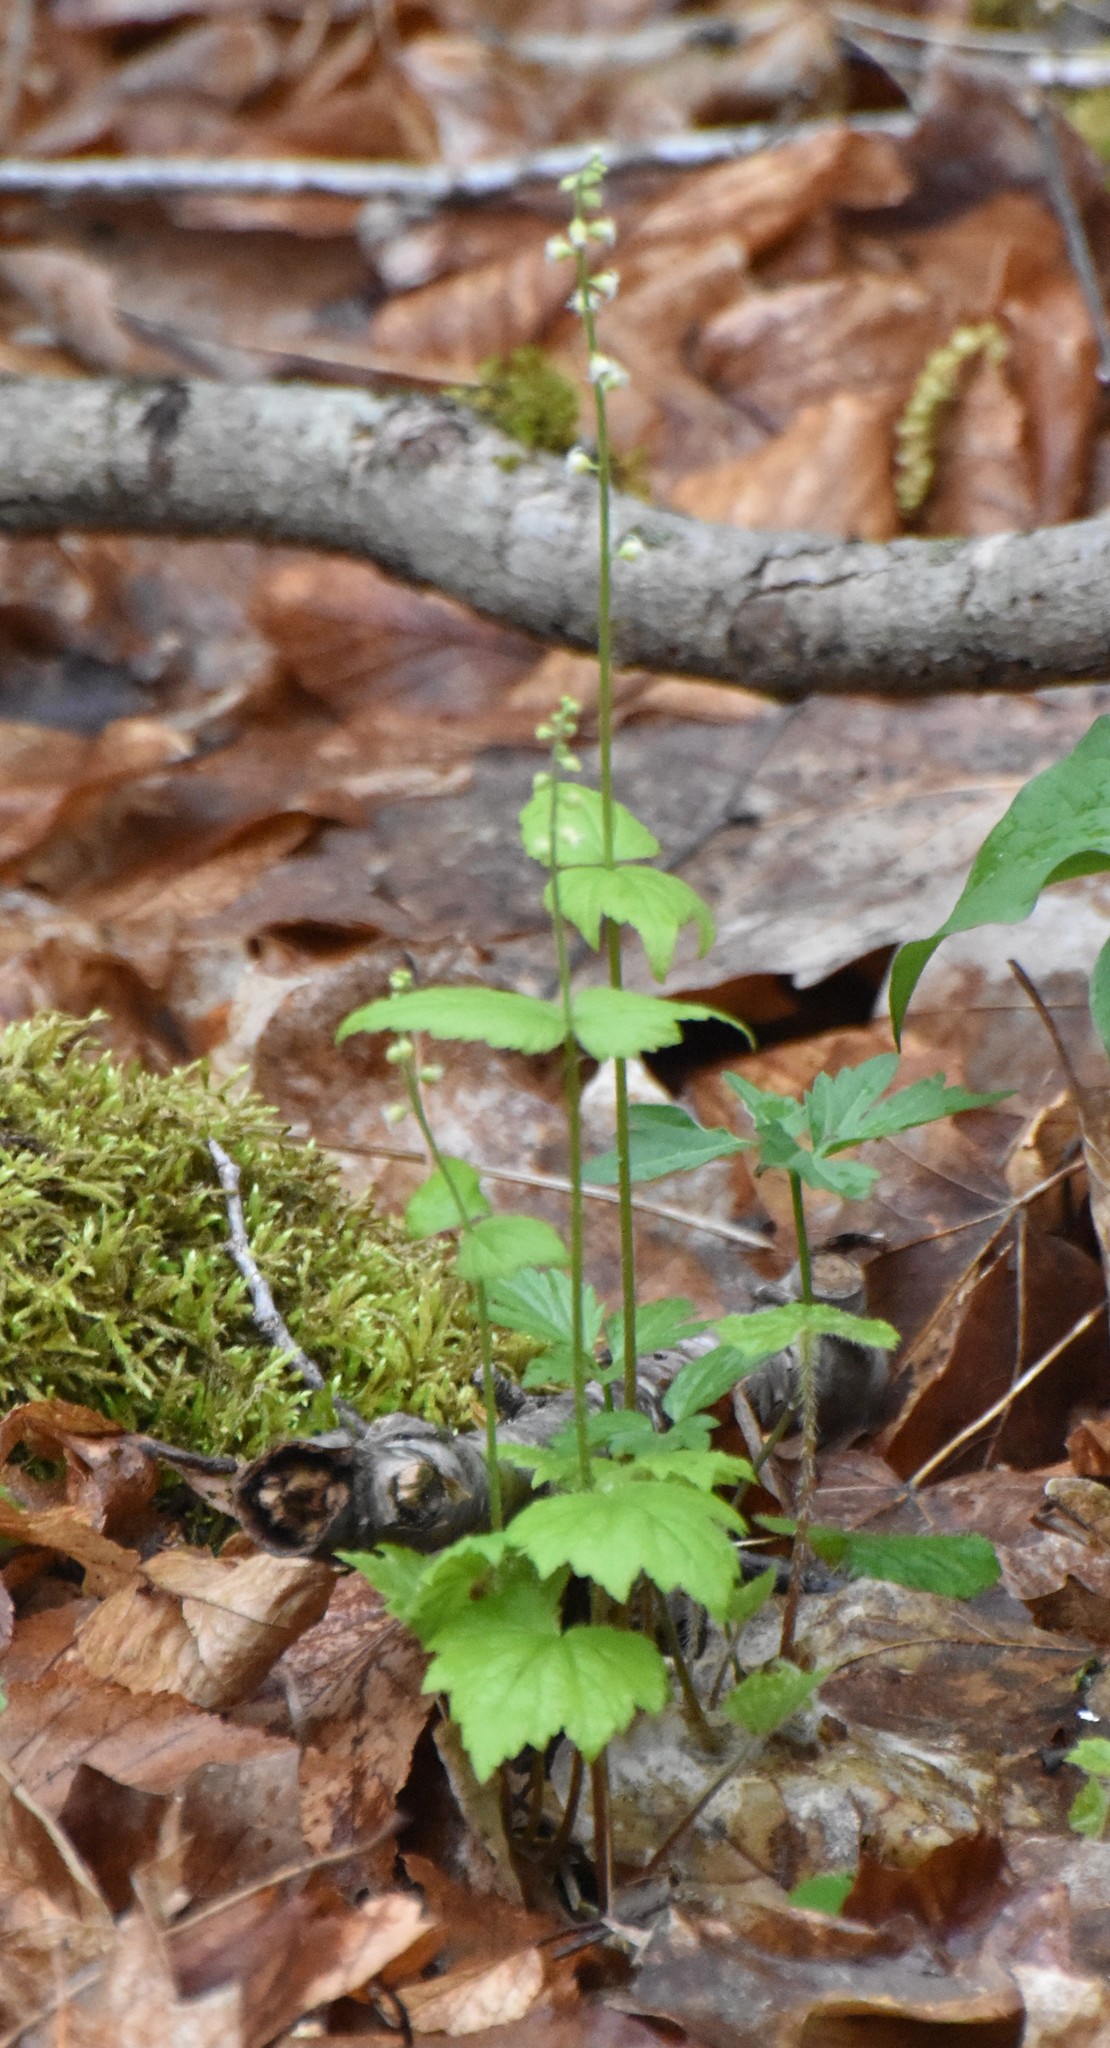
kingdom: Plantae
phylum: Tracheophyta
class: Magnoliopsida
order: Saxifragales
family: Saxifragaceae
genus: Mitella
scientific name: Mitella diphylla
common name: Coolwort
